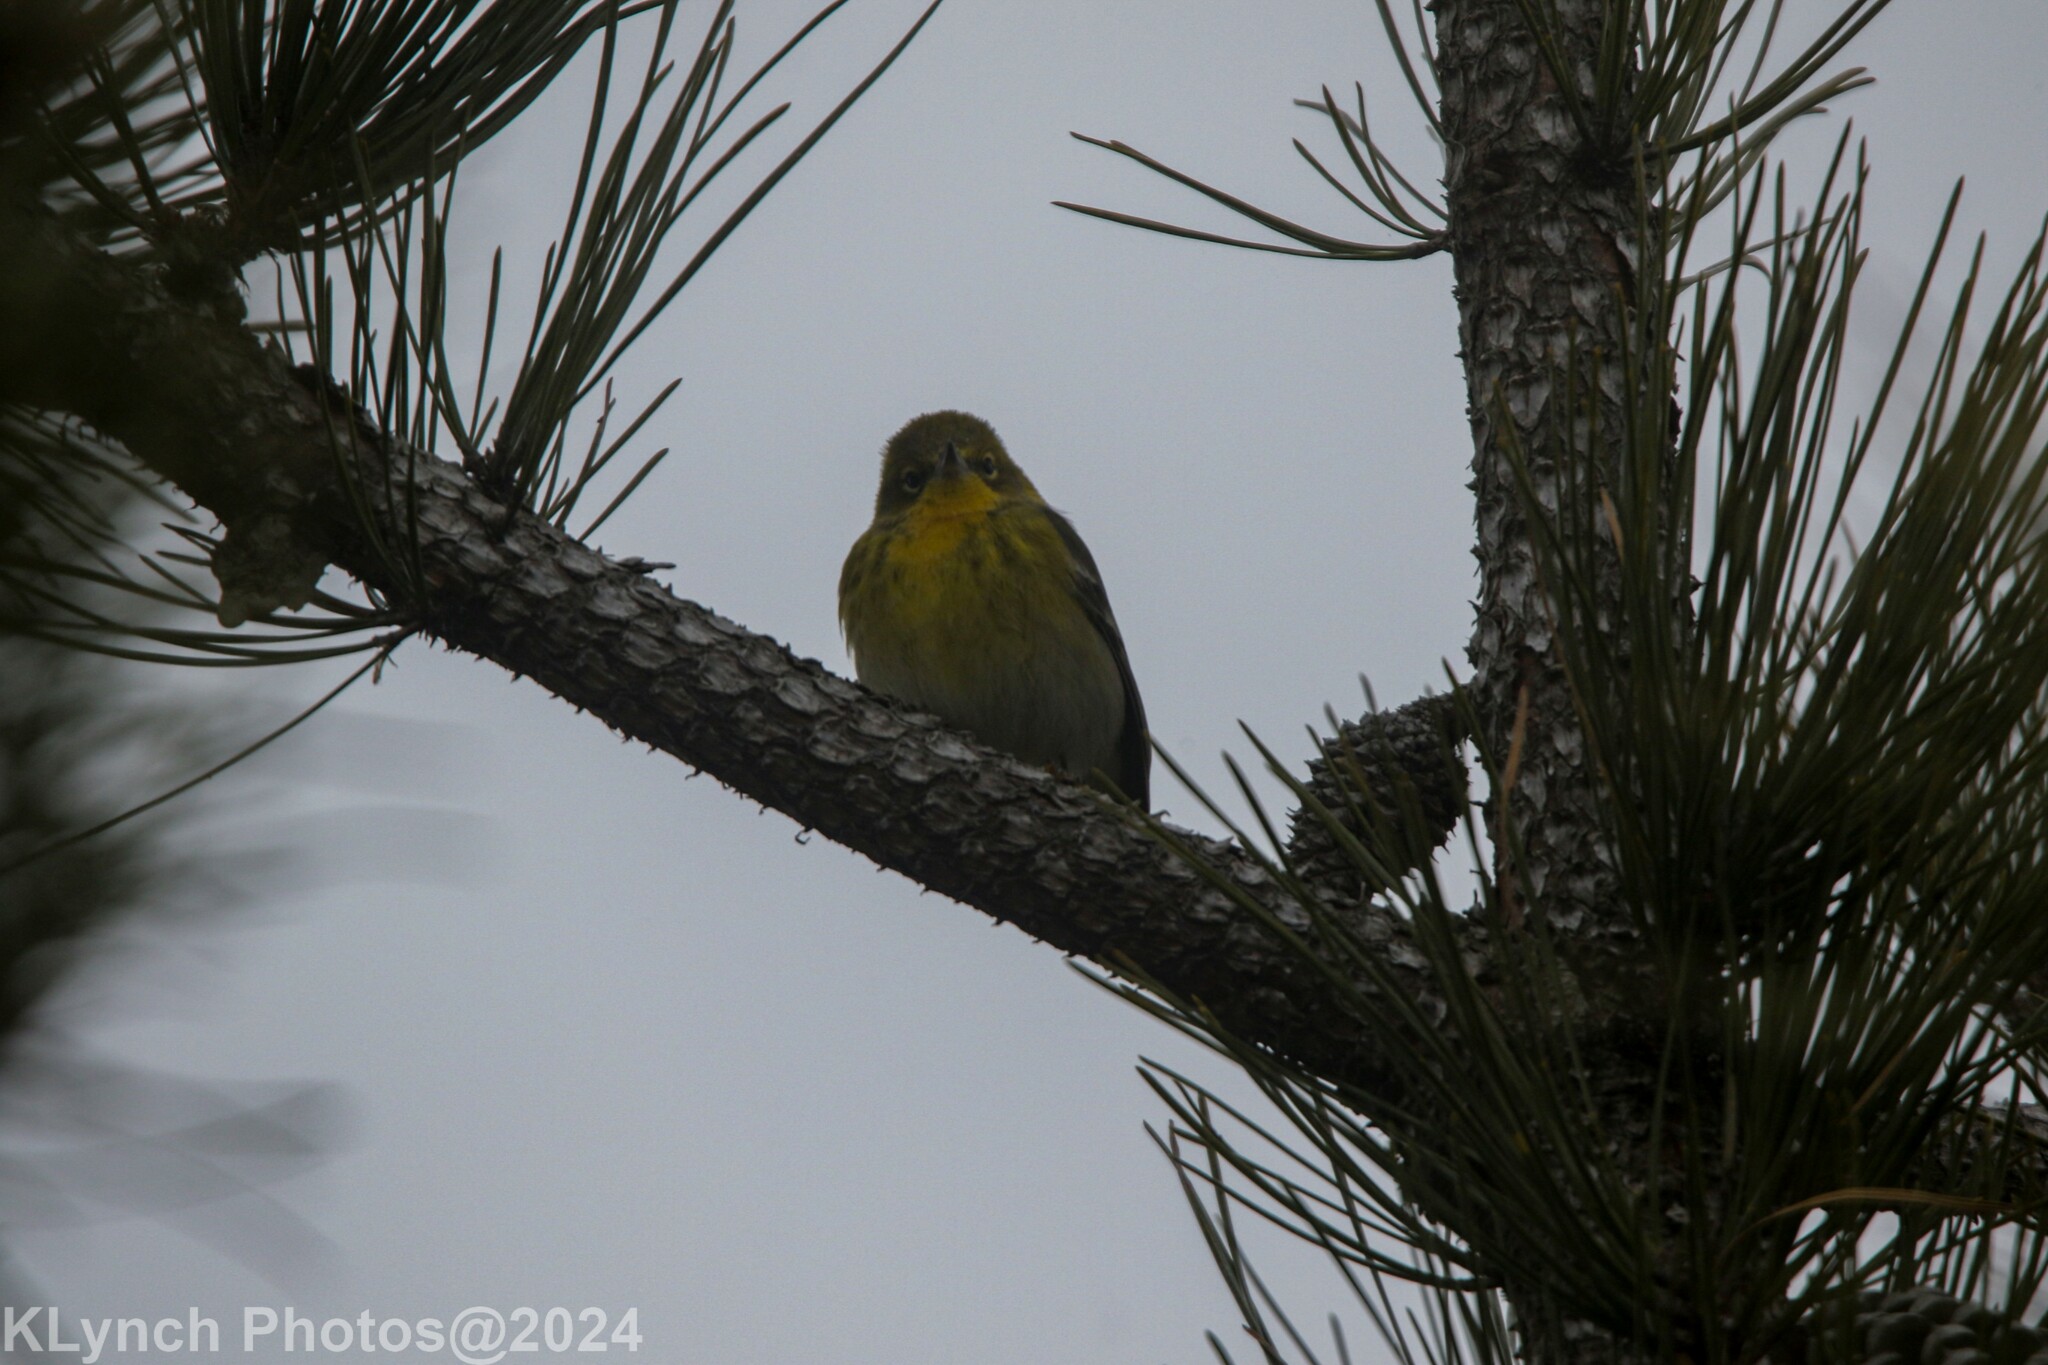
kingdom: Animalia
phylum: Chordata
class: Aves
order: Passeriformes
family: Parulidae
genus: Setophaga
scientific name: Setophaga pinus
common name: Pine warbler
